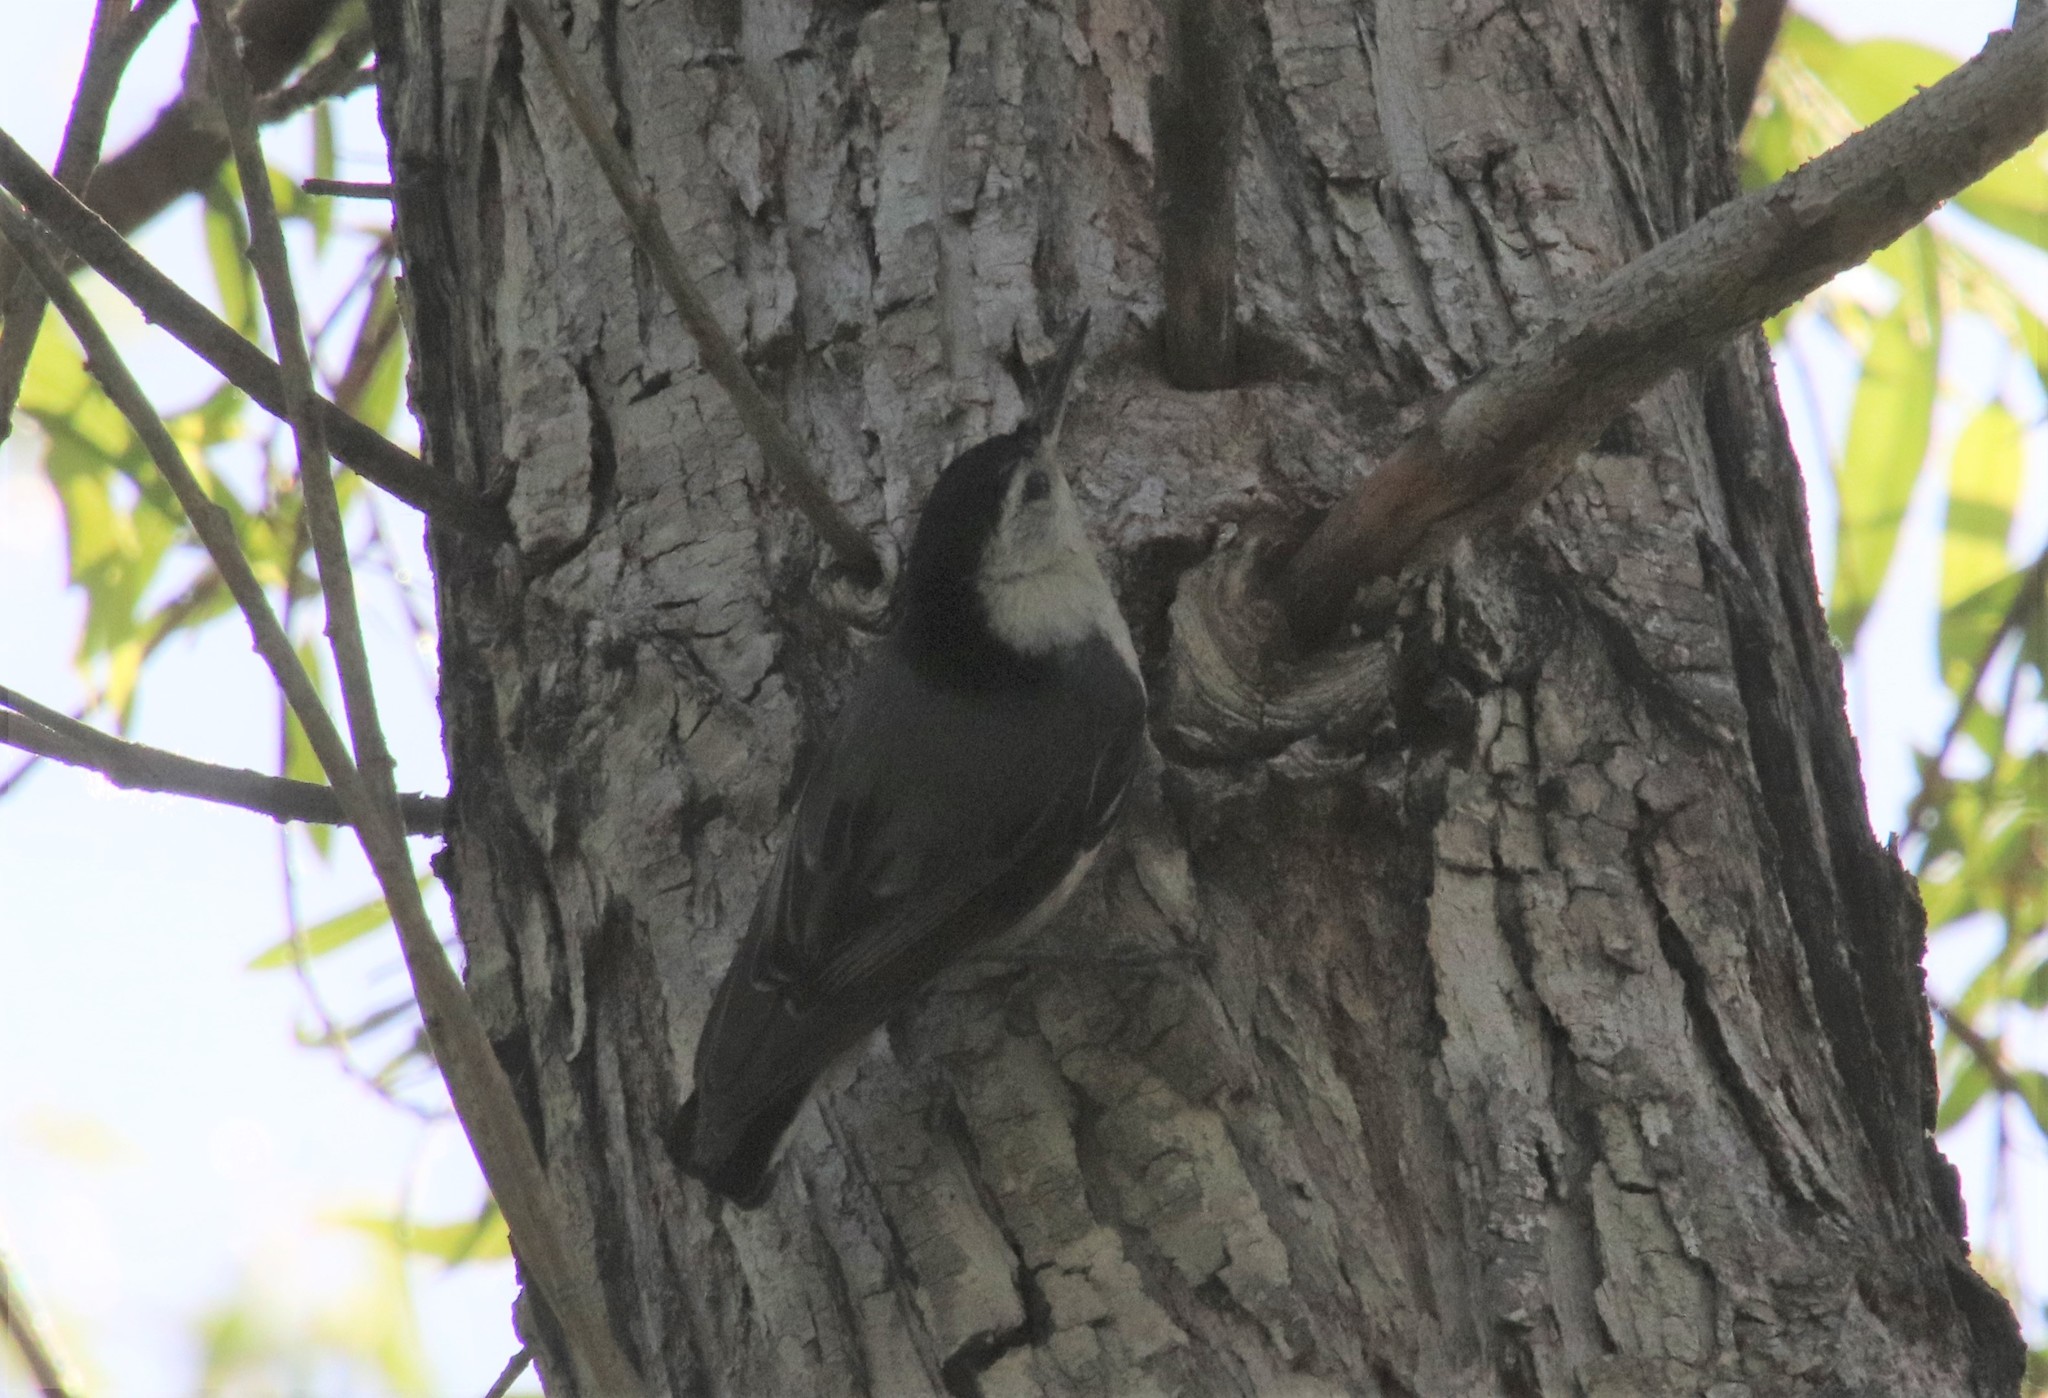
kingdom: Animalia
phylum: Chordata
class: Aves
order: Passeriformes
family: Sittidae
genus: Sitta
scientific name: Sitta carolinensis
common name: White-breasted nuthatch
